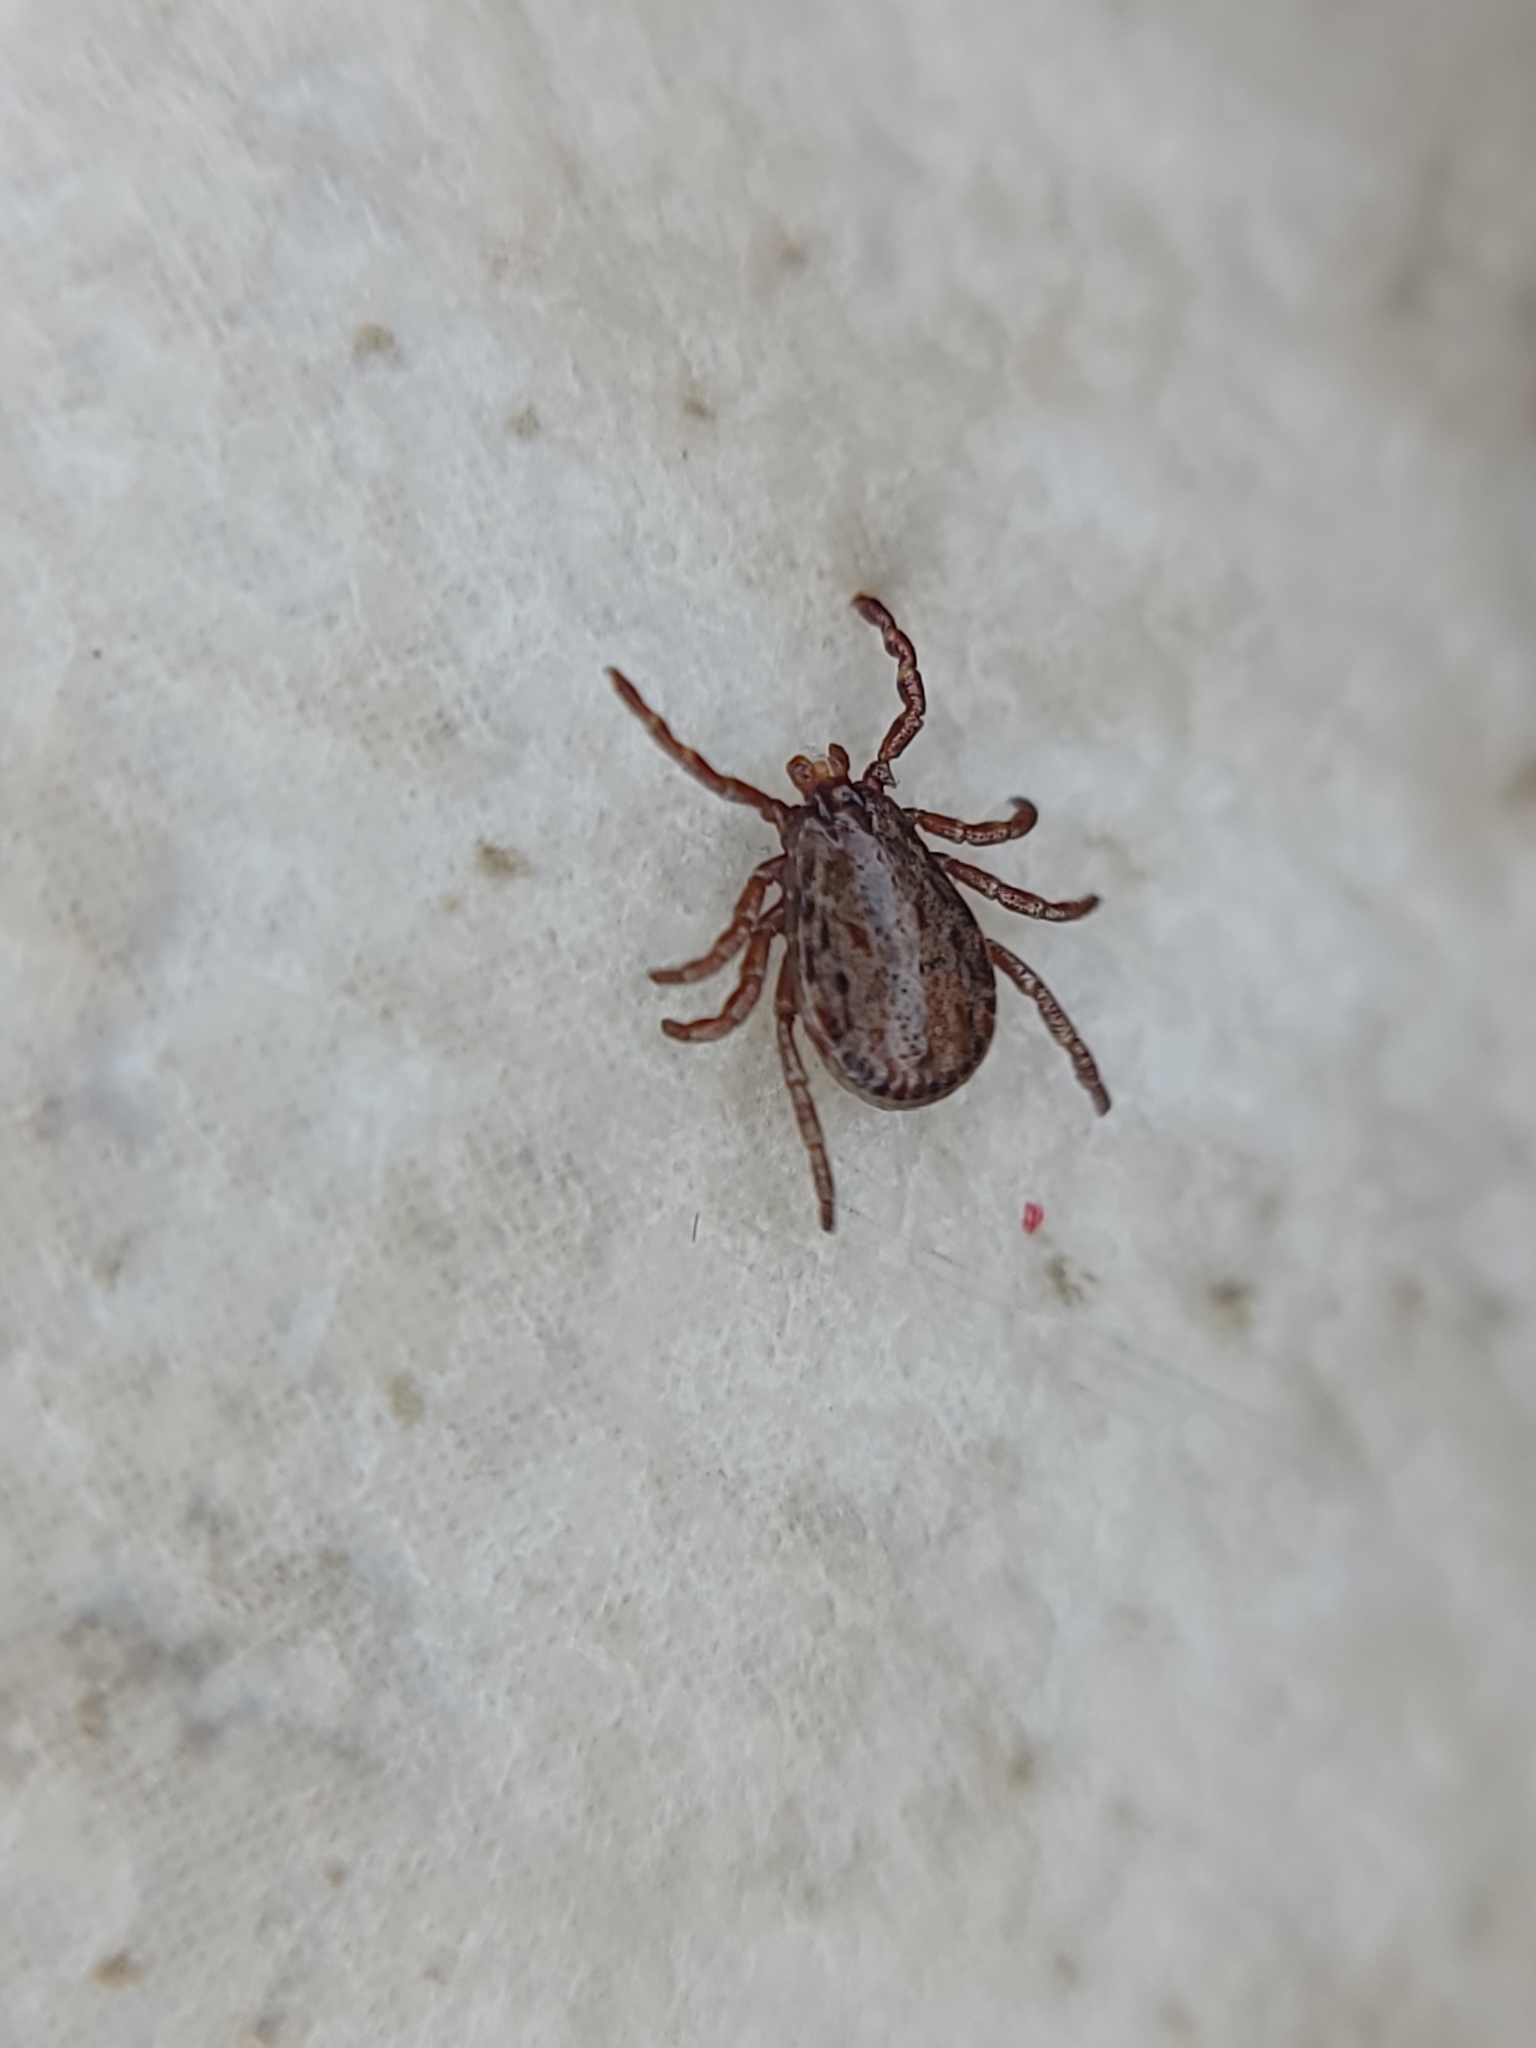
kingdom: Animalia
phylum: Arthropoda
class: Arachnida
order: Ixodida
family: Ixodidae
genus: Dermacentor
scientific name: Dermacentor occidentalis
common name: Net tick
